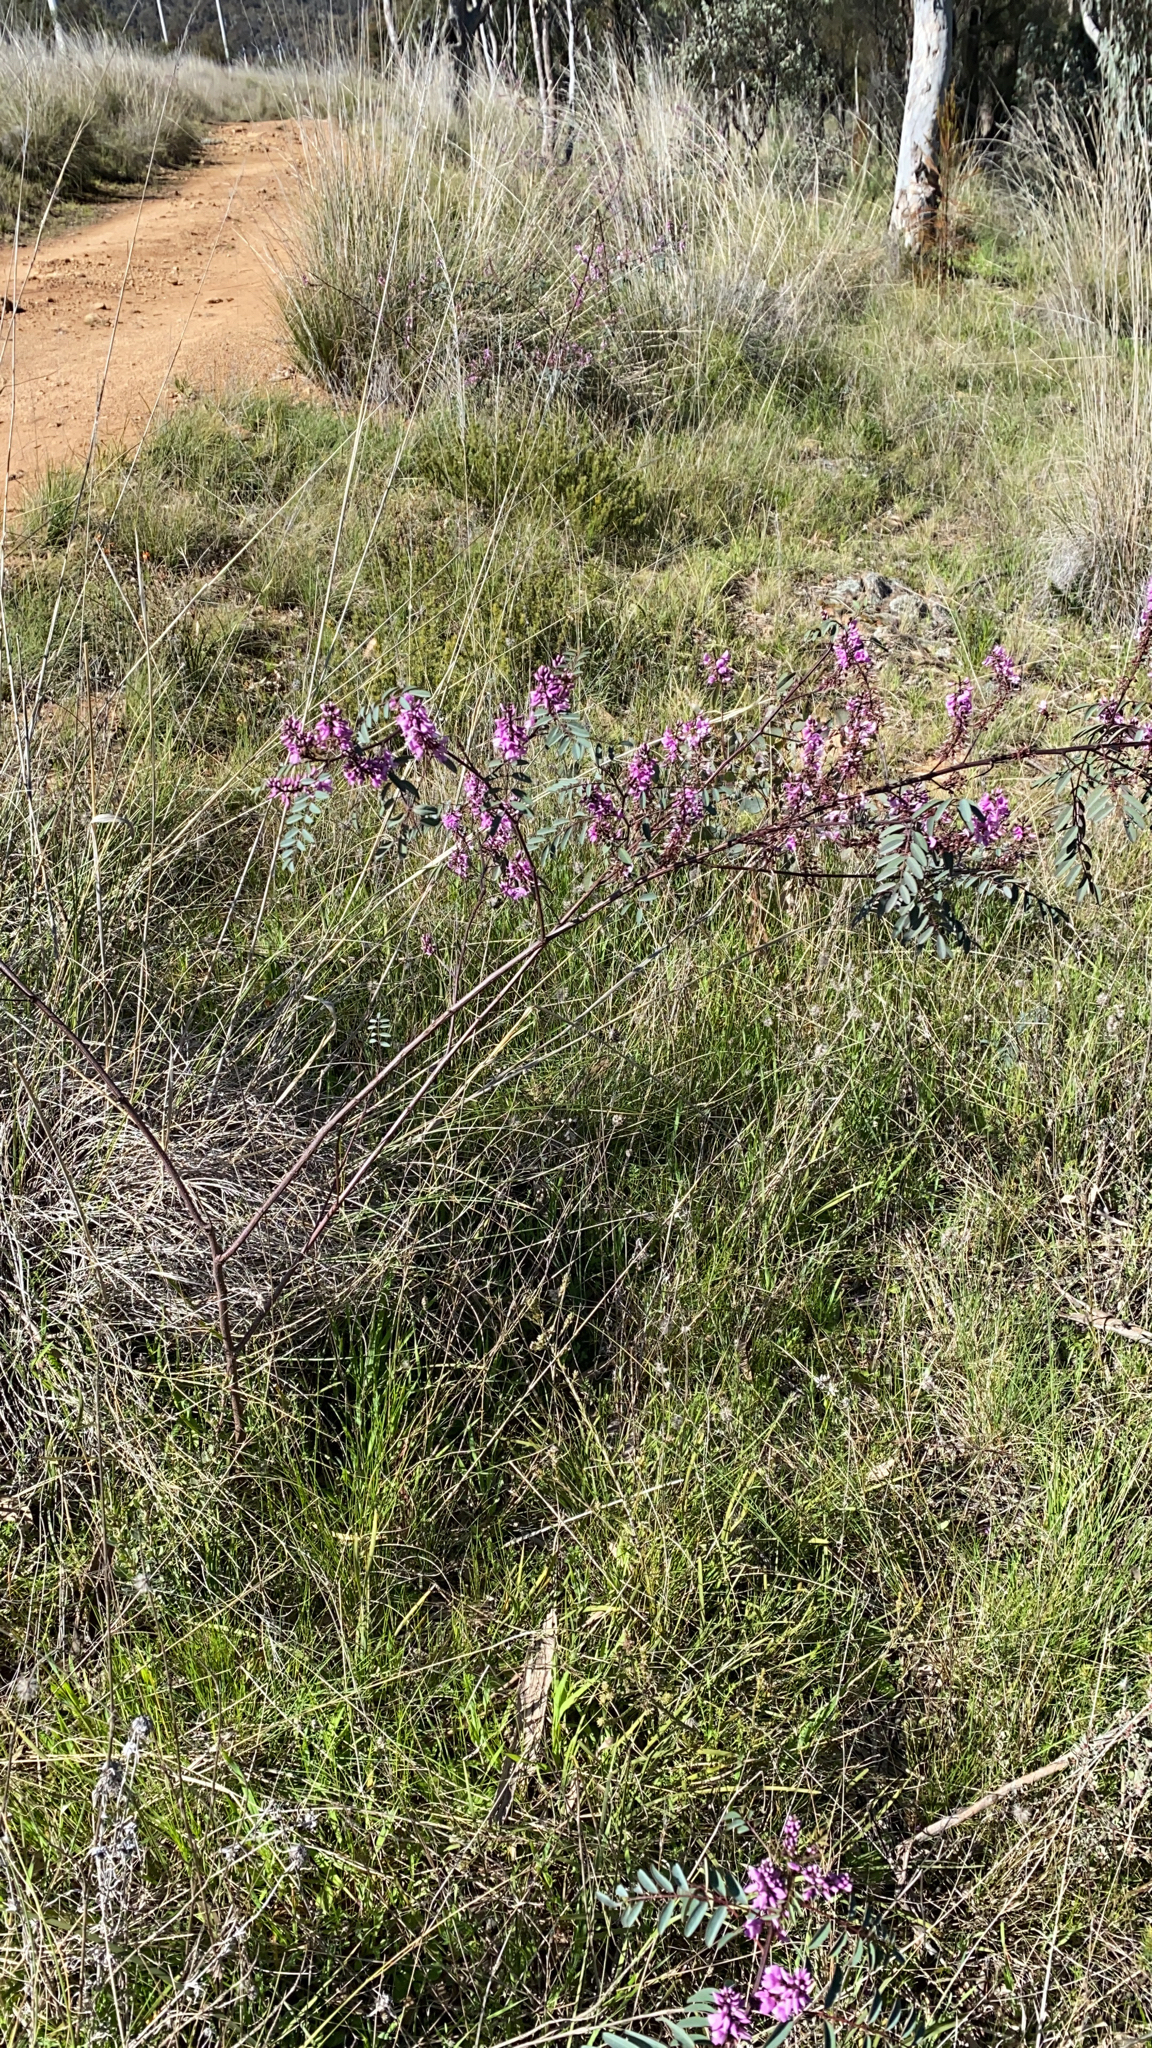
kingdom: Plantae
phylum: Tracheophyta
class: Magnoliopsida
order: Fabales
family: Fabaceae
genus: Indigofera
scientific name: Indigofera australis
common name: Australian indigo
